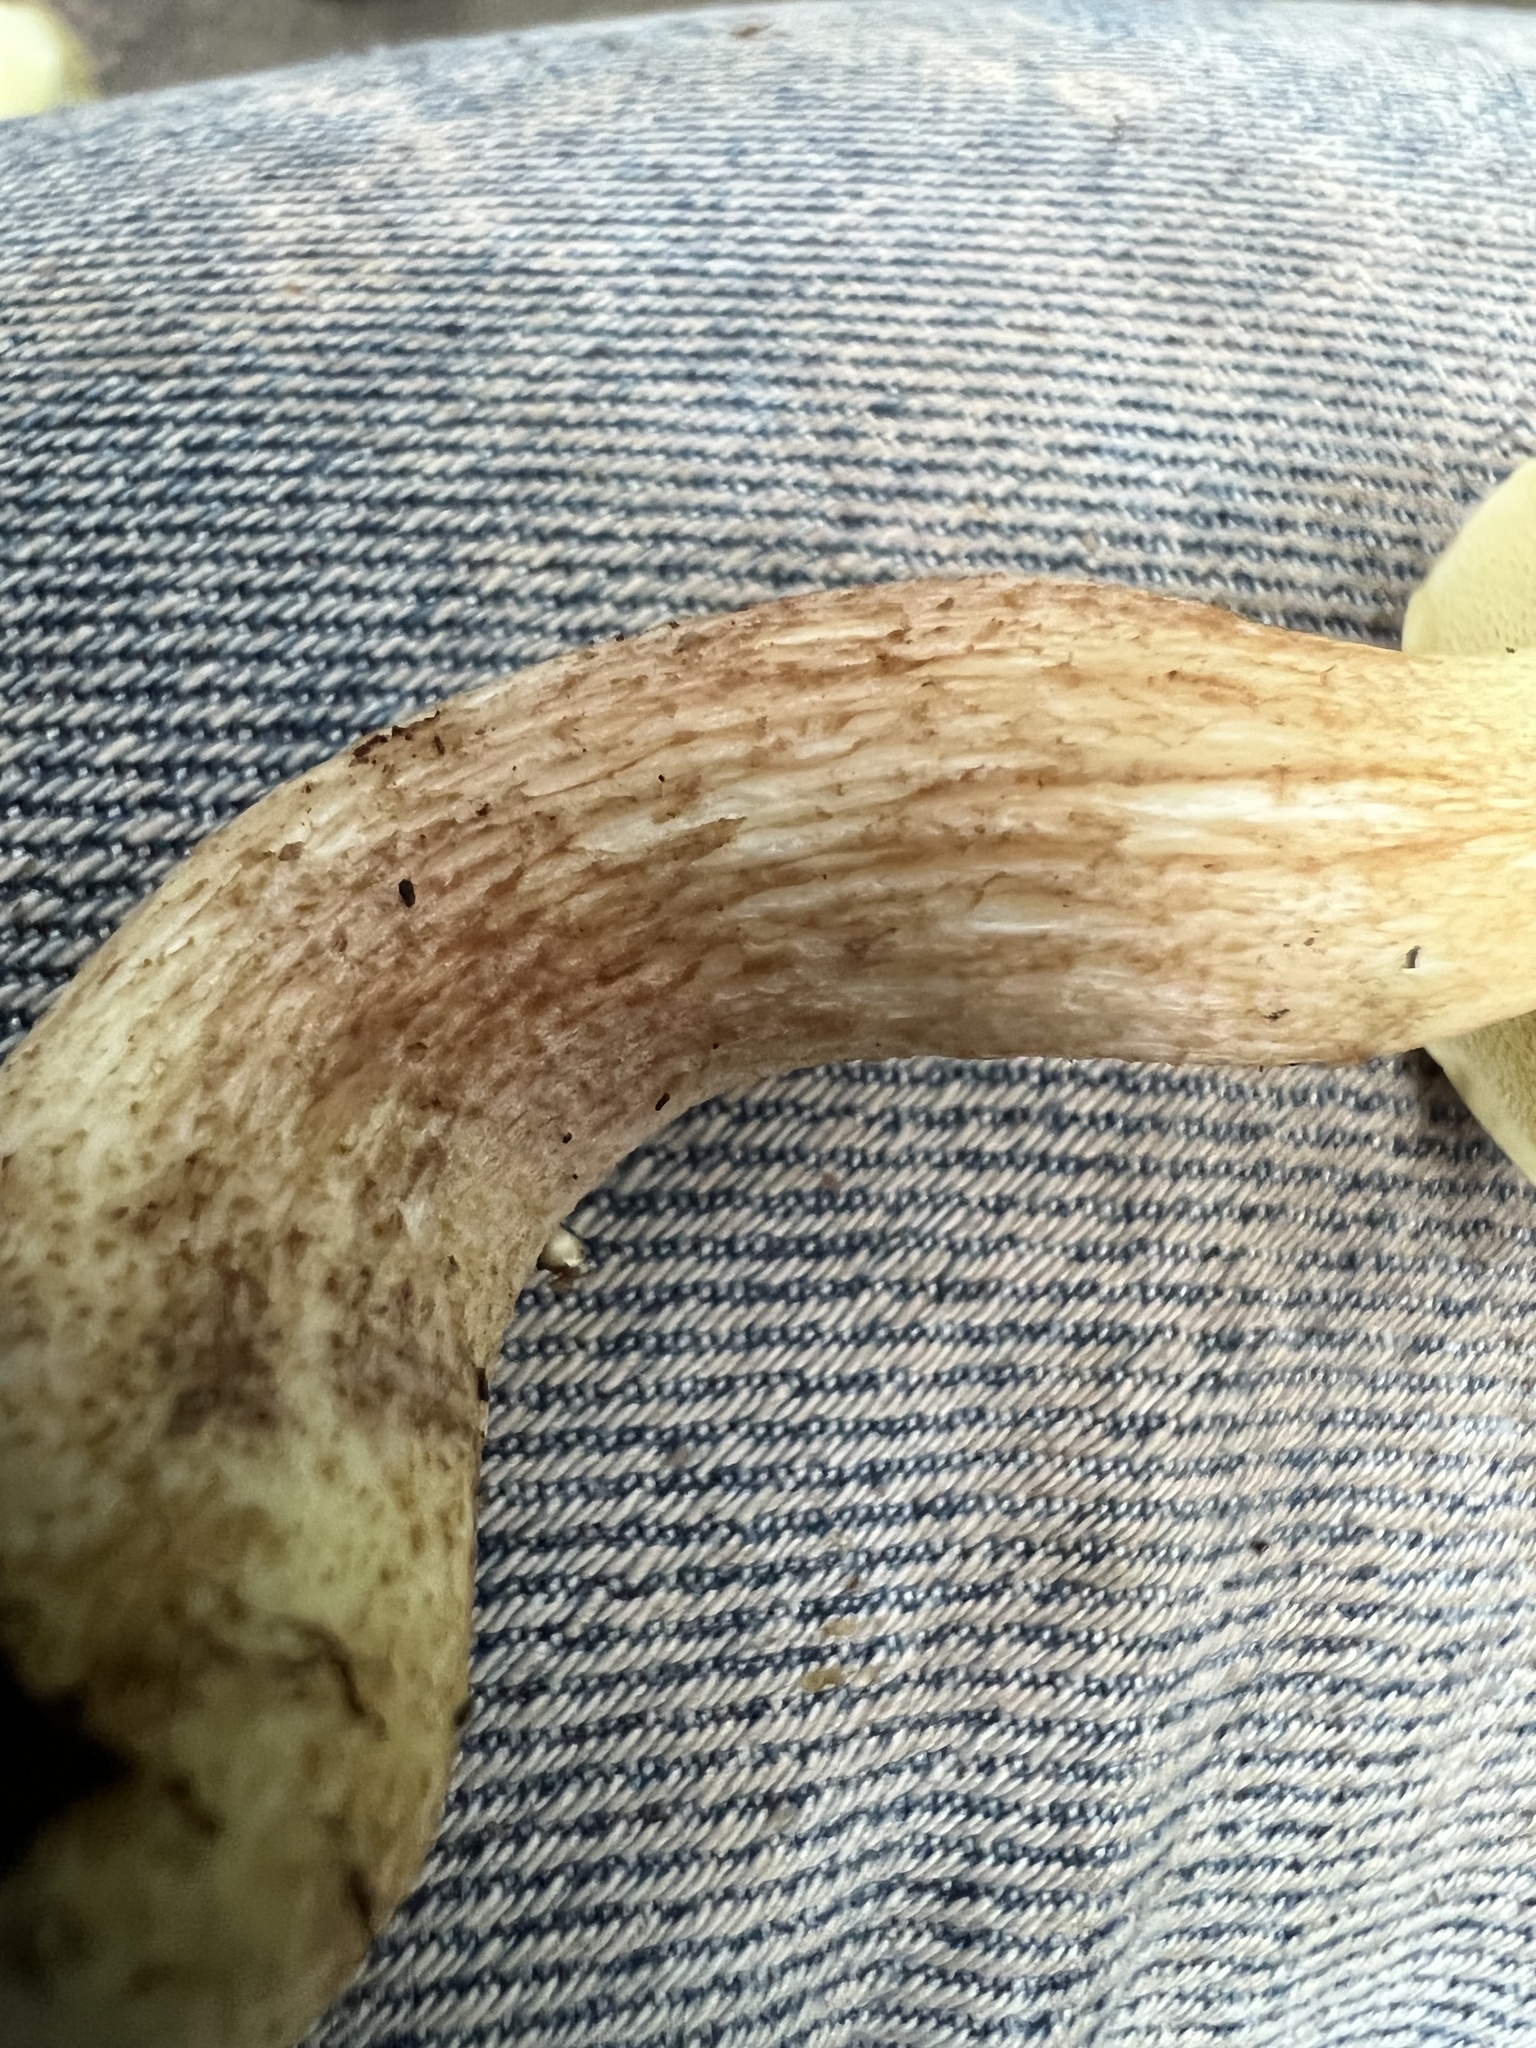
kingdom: Fungi
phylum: Basidiomycota
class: Agaricomycetes
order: Boletales
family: Boletaceae
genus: Leccinum
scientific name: Leccinum longicurvipes
